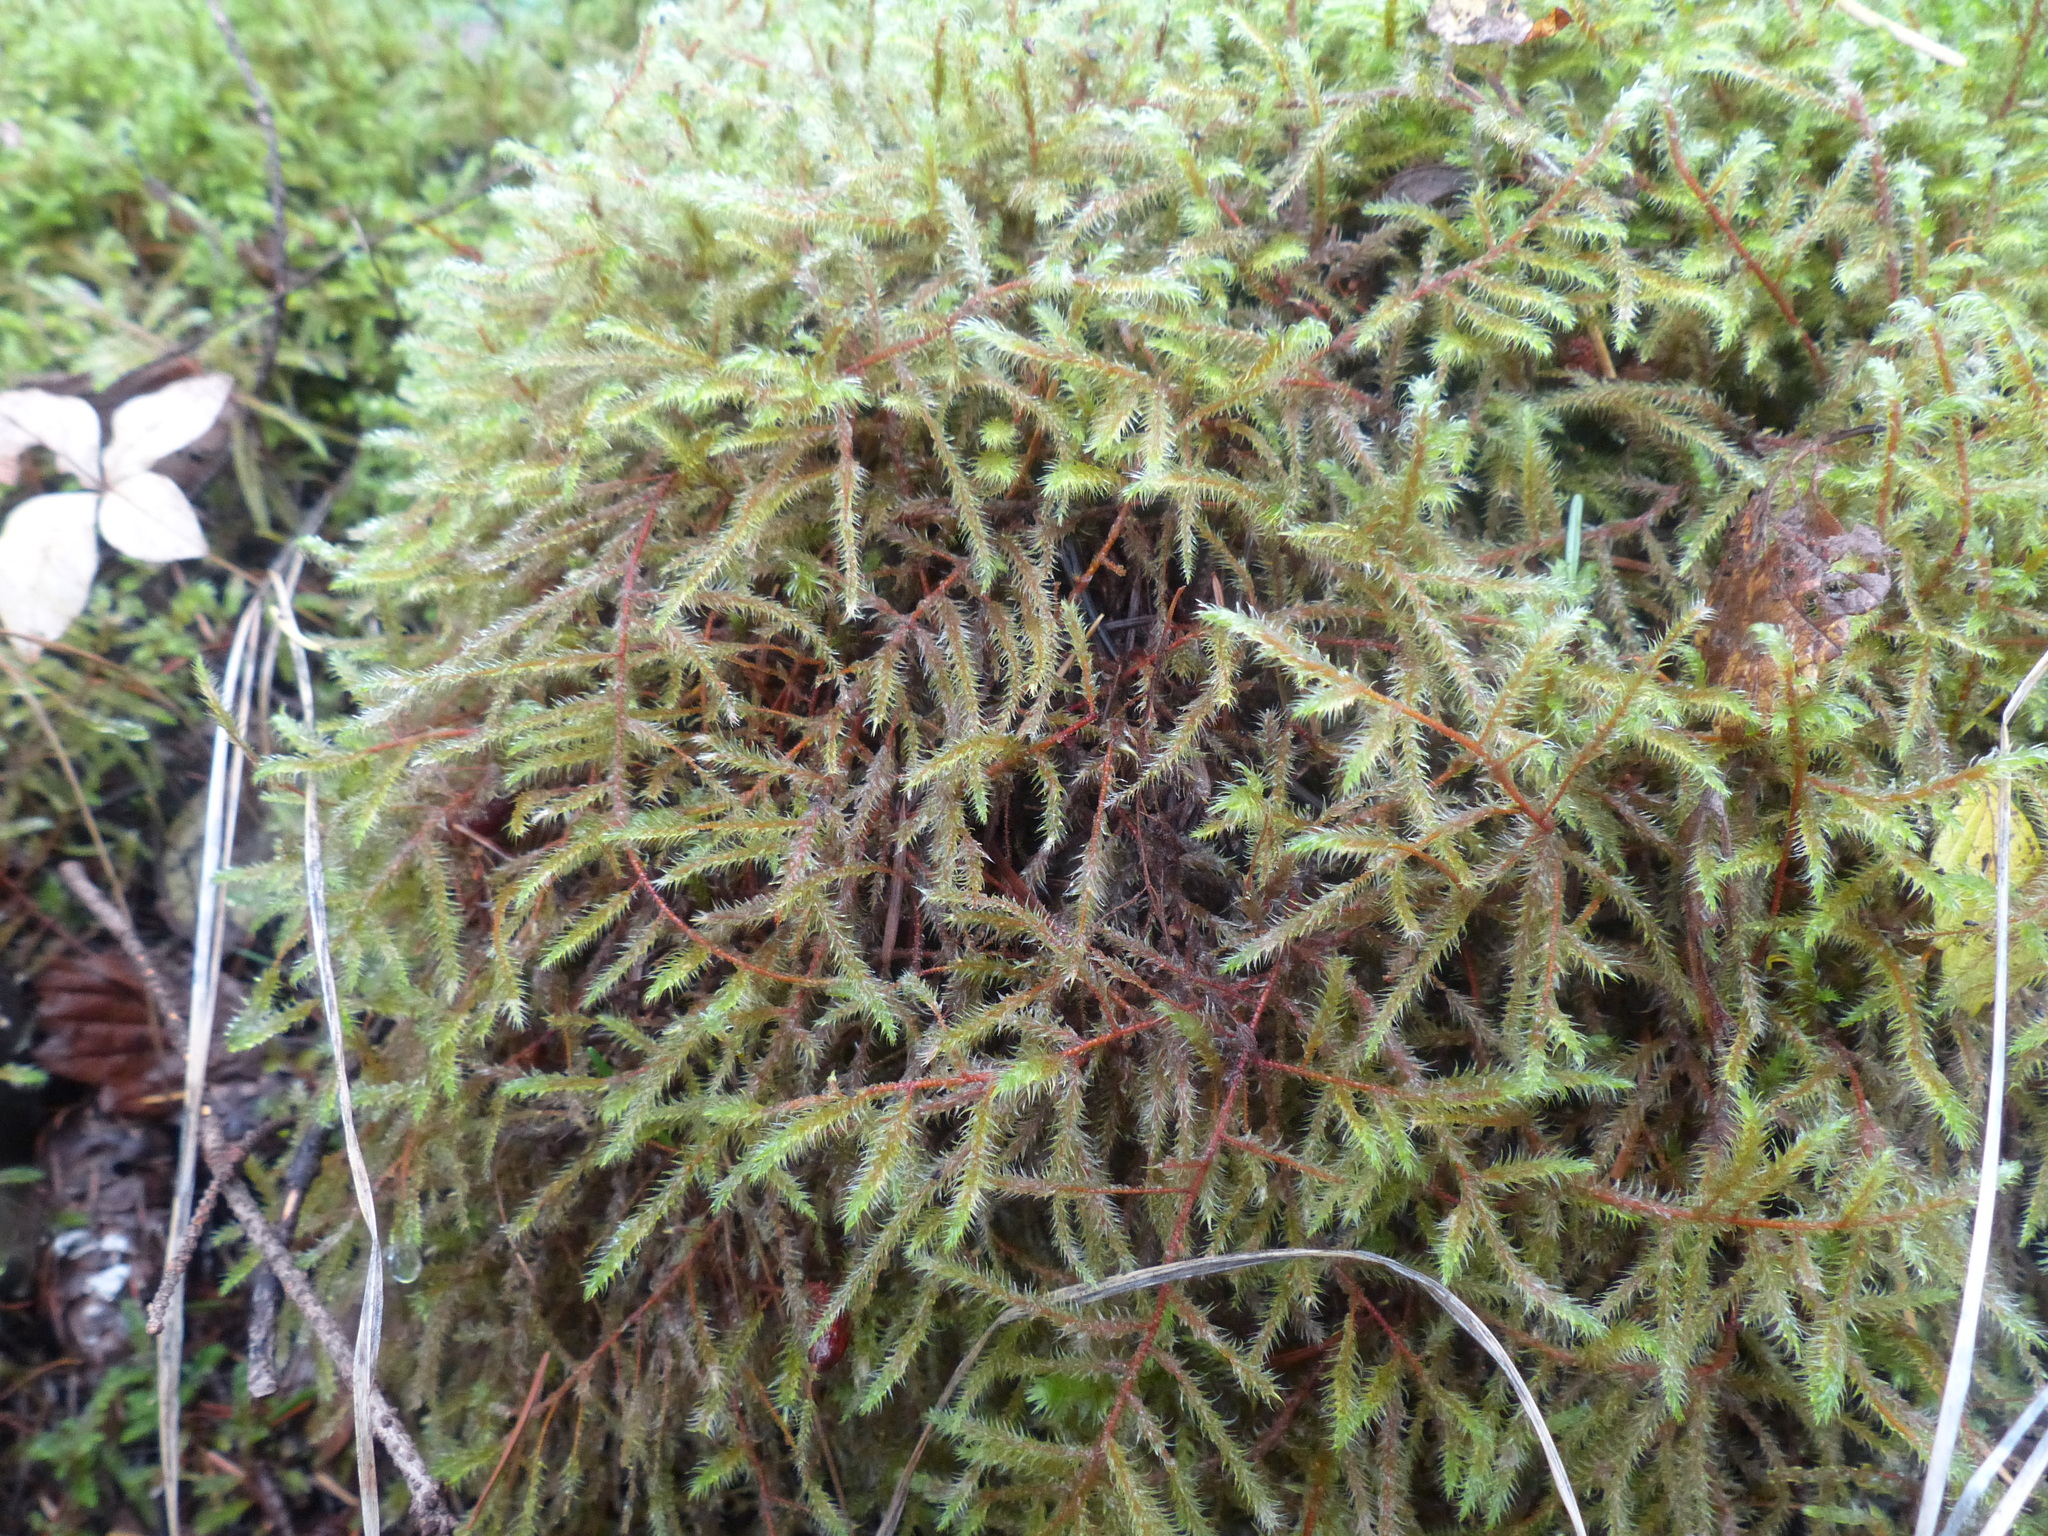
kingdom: Plantae
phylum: Bryophyta
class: Bryopsida
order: Hypnales
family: Hylocomiaceae
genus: Rhytidiadelphus
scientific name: Rhytidiadelphus loreus
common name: Lanky moss
